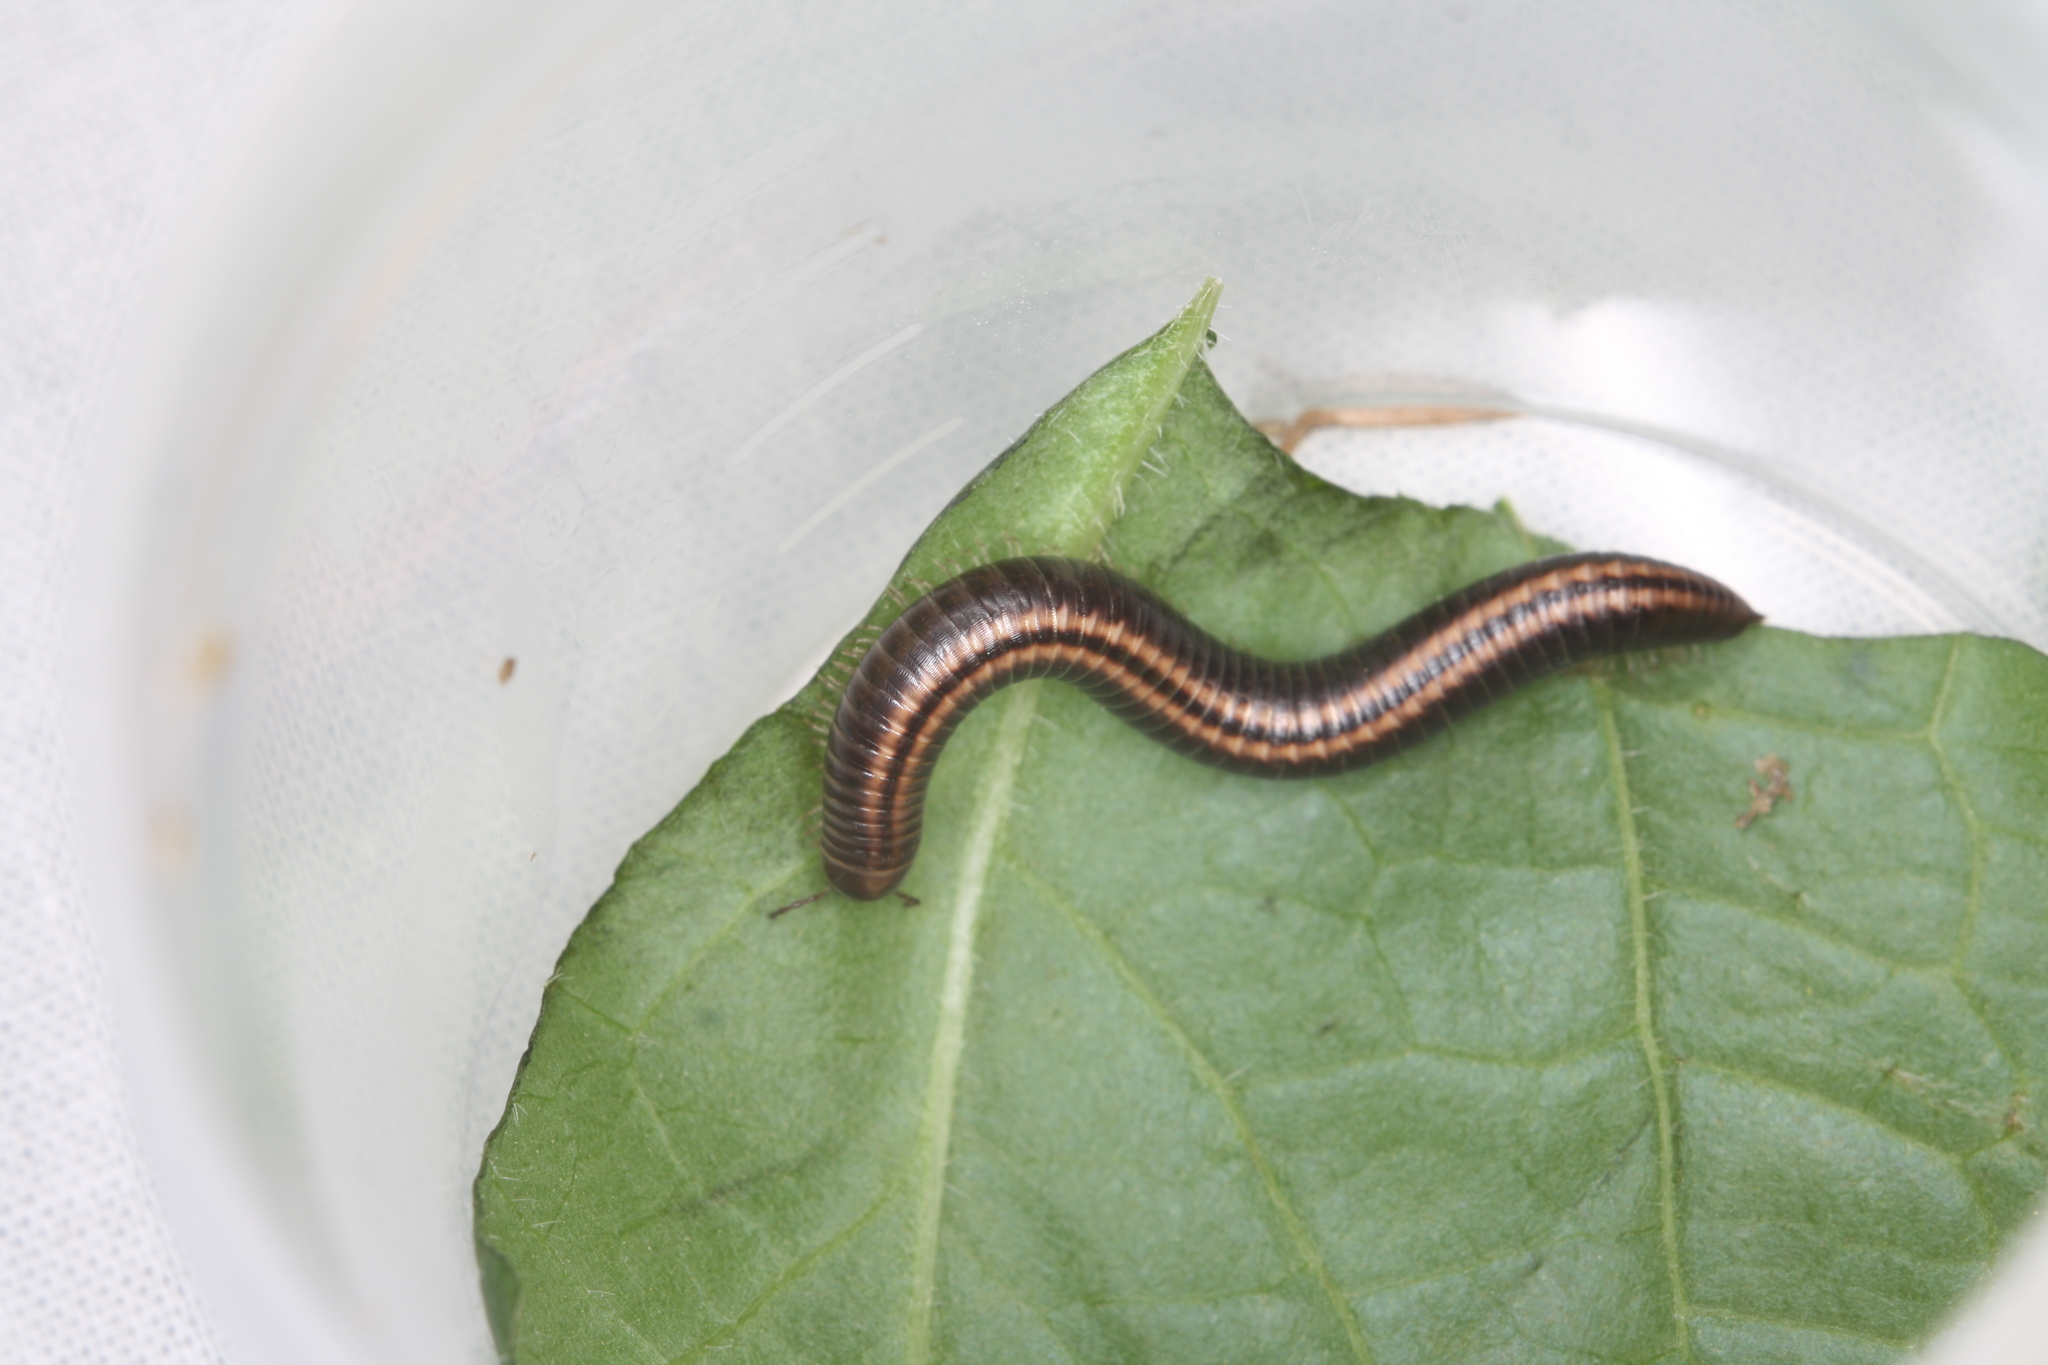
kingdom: Animalia
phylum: Arthropoda
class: Diplopoda
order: Julida
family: Julidae
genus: Ommatoiulus
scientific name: Ommatoiulus sabulosus
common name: Striped millipede
